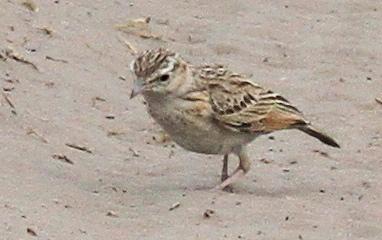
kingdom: Animalia
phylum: Chordata
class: Aves
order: Passeriformes
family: Alaudidae
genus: Calendulauda
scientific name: Calendulauda africanoides
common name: Fawn-colored lark
